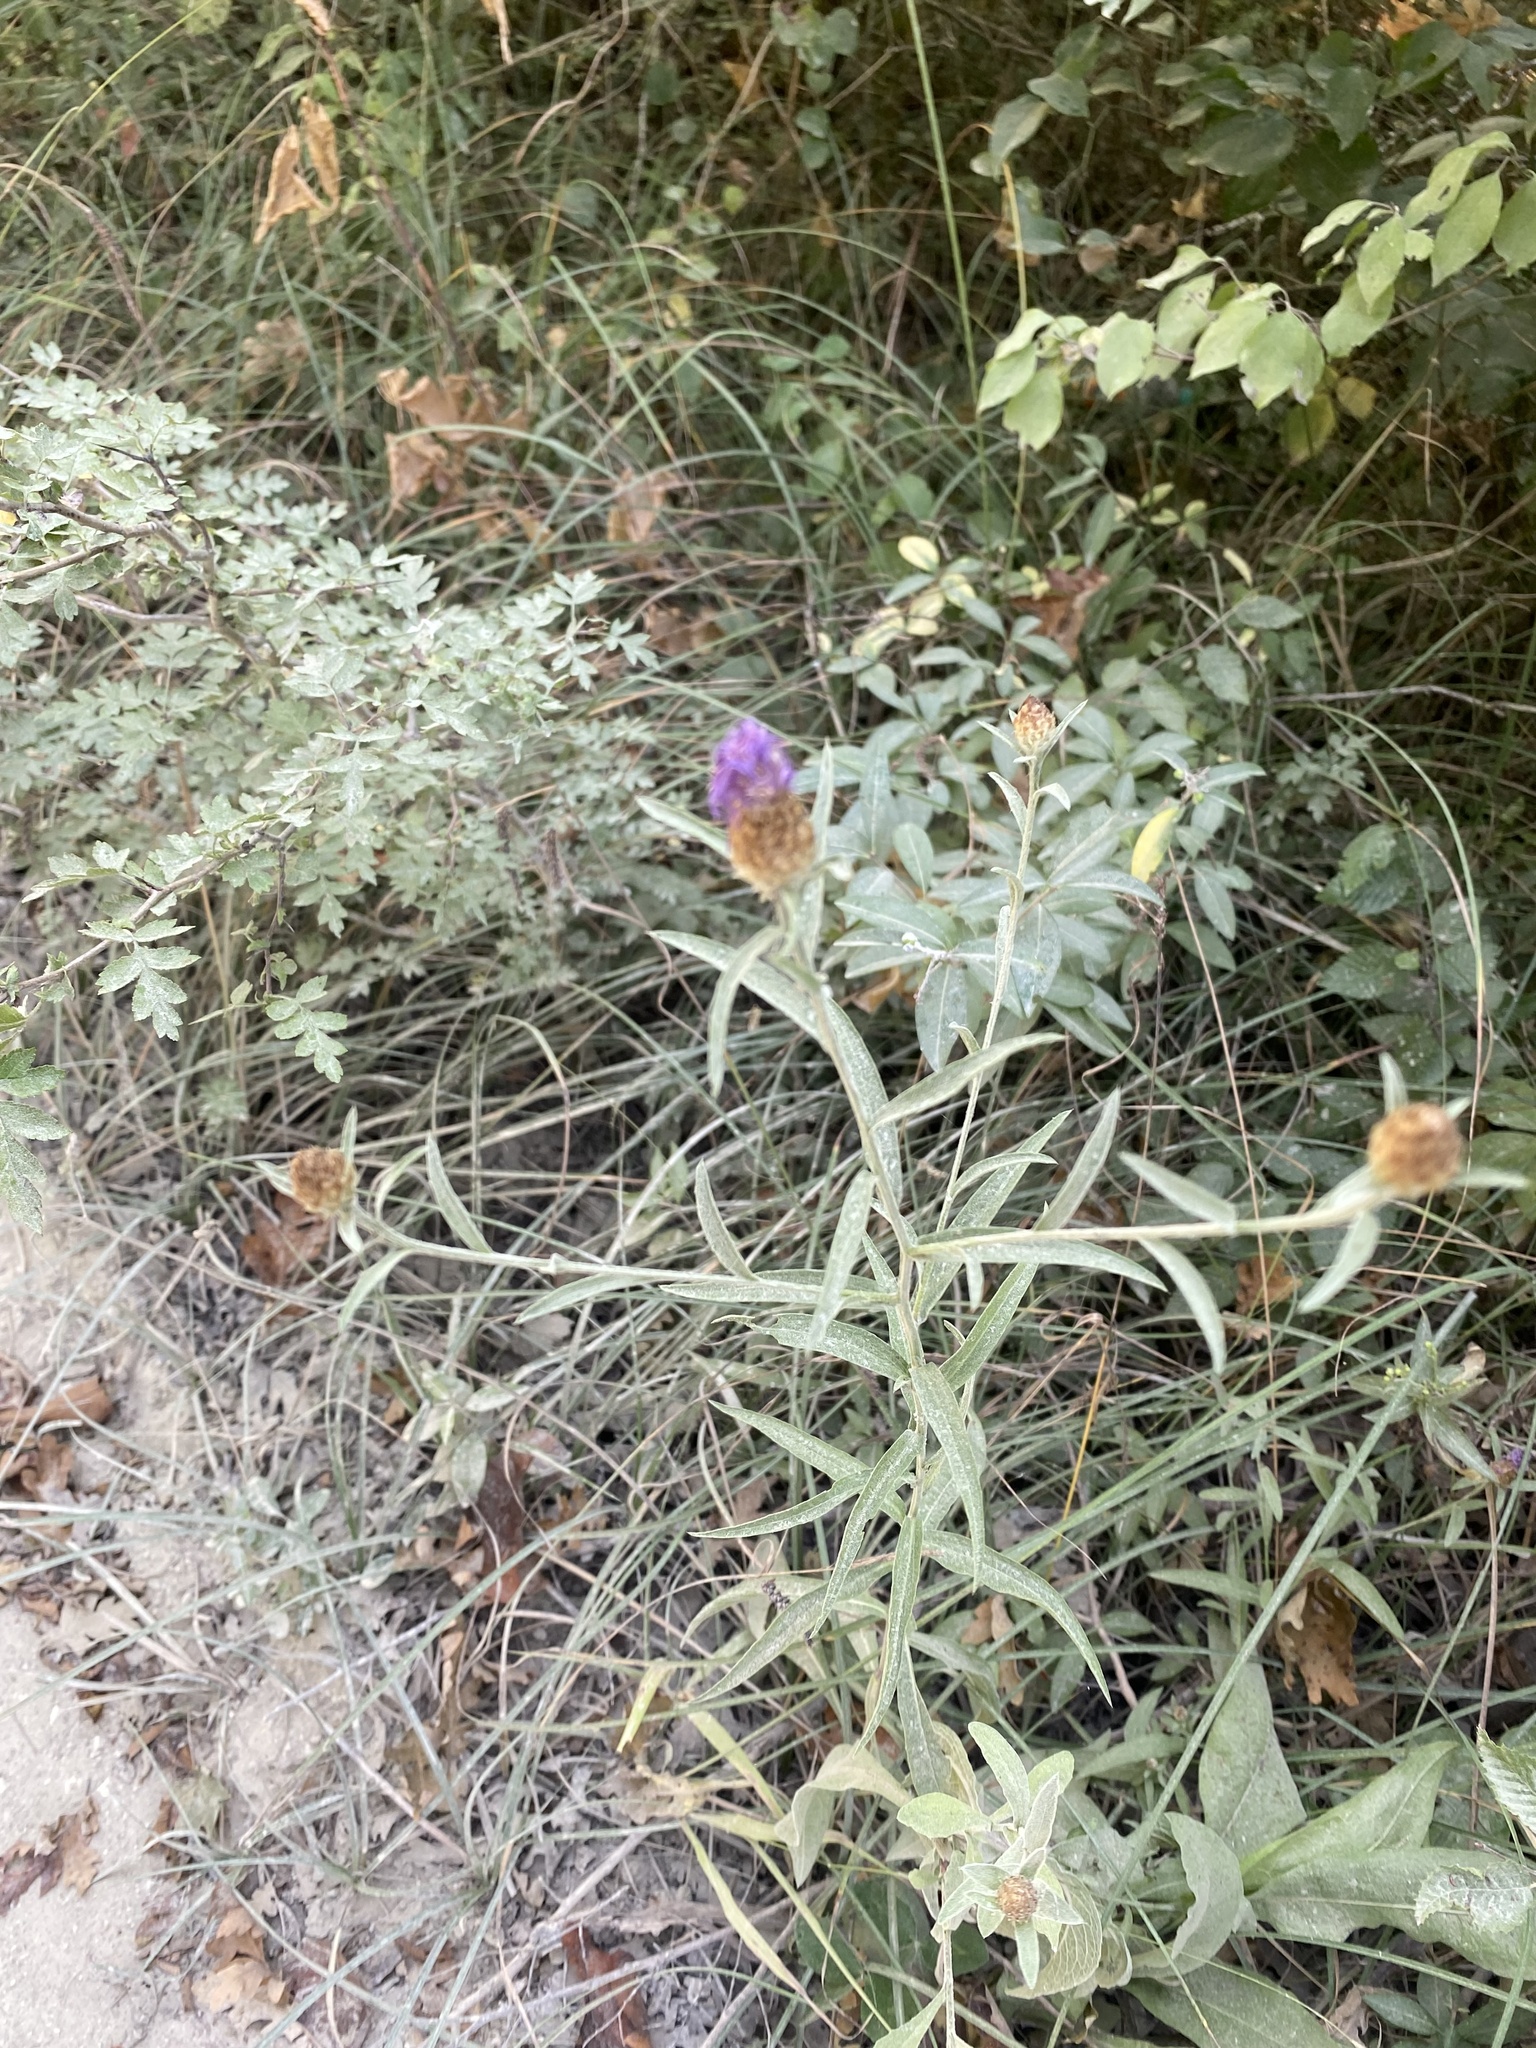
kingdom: Plantae
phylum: Tracheophyta
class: Magnoliopsida
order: Asterales
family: Asteraceae
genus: Centaurea
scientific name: Centaurea jacea
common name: Brown knapweed
